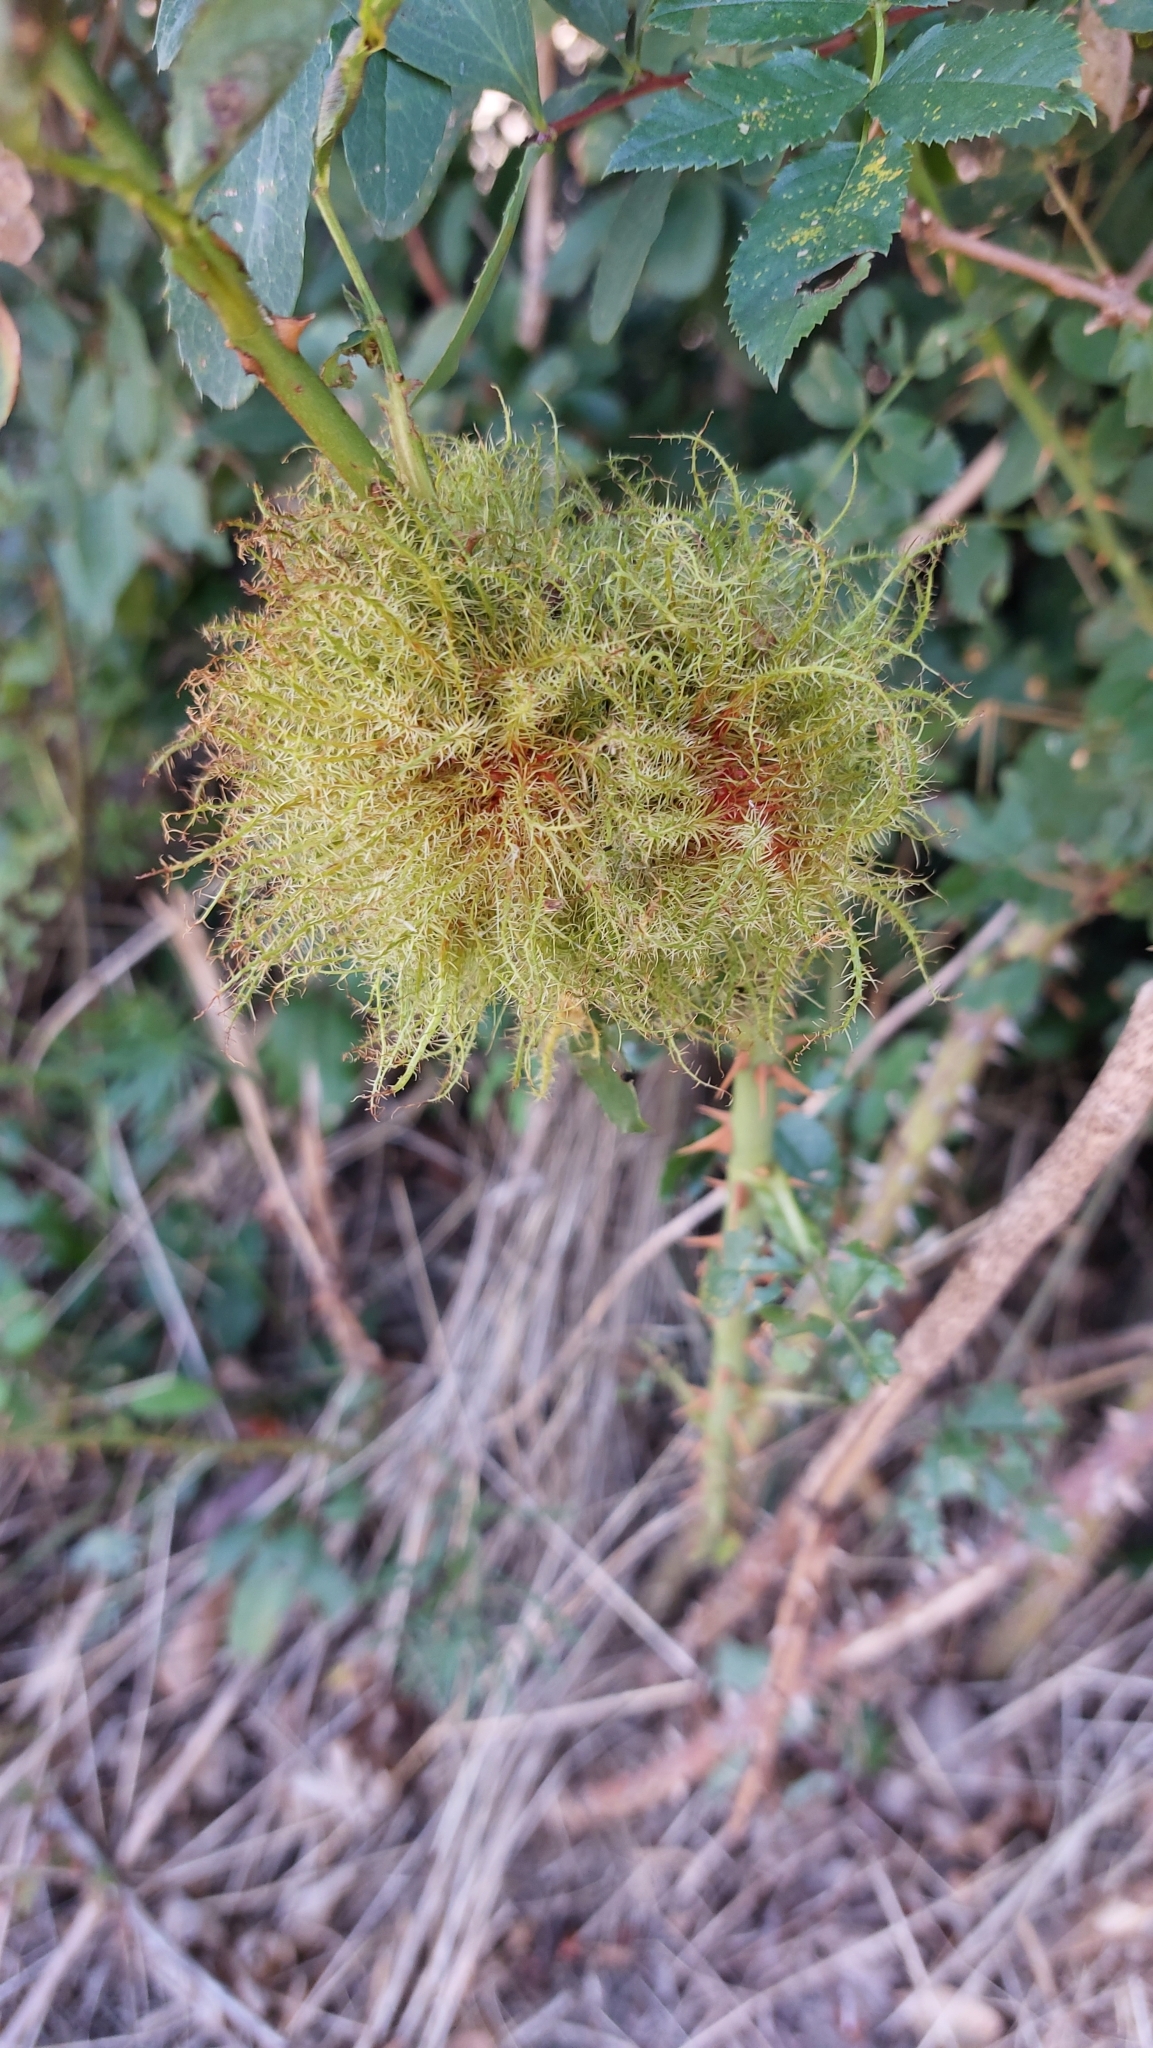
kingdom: Animalia
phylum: Arthropoda
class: Insecta
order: Hymenoptera
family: Cynipidae
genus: Diplolepis
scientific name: Diplolepis rosae
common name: Bedeguar gall
